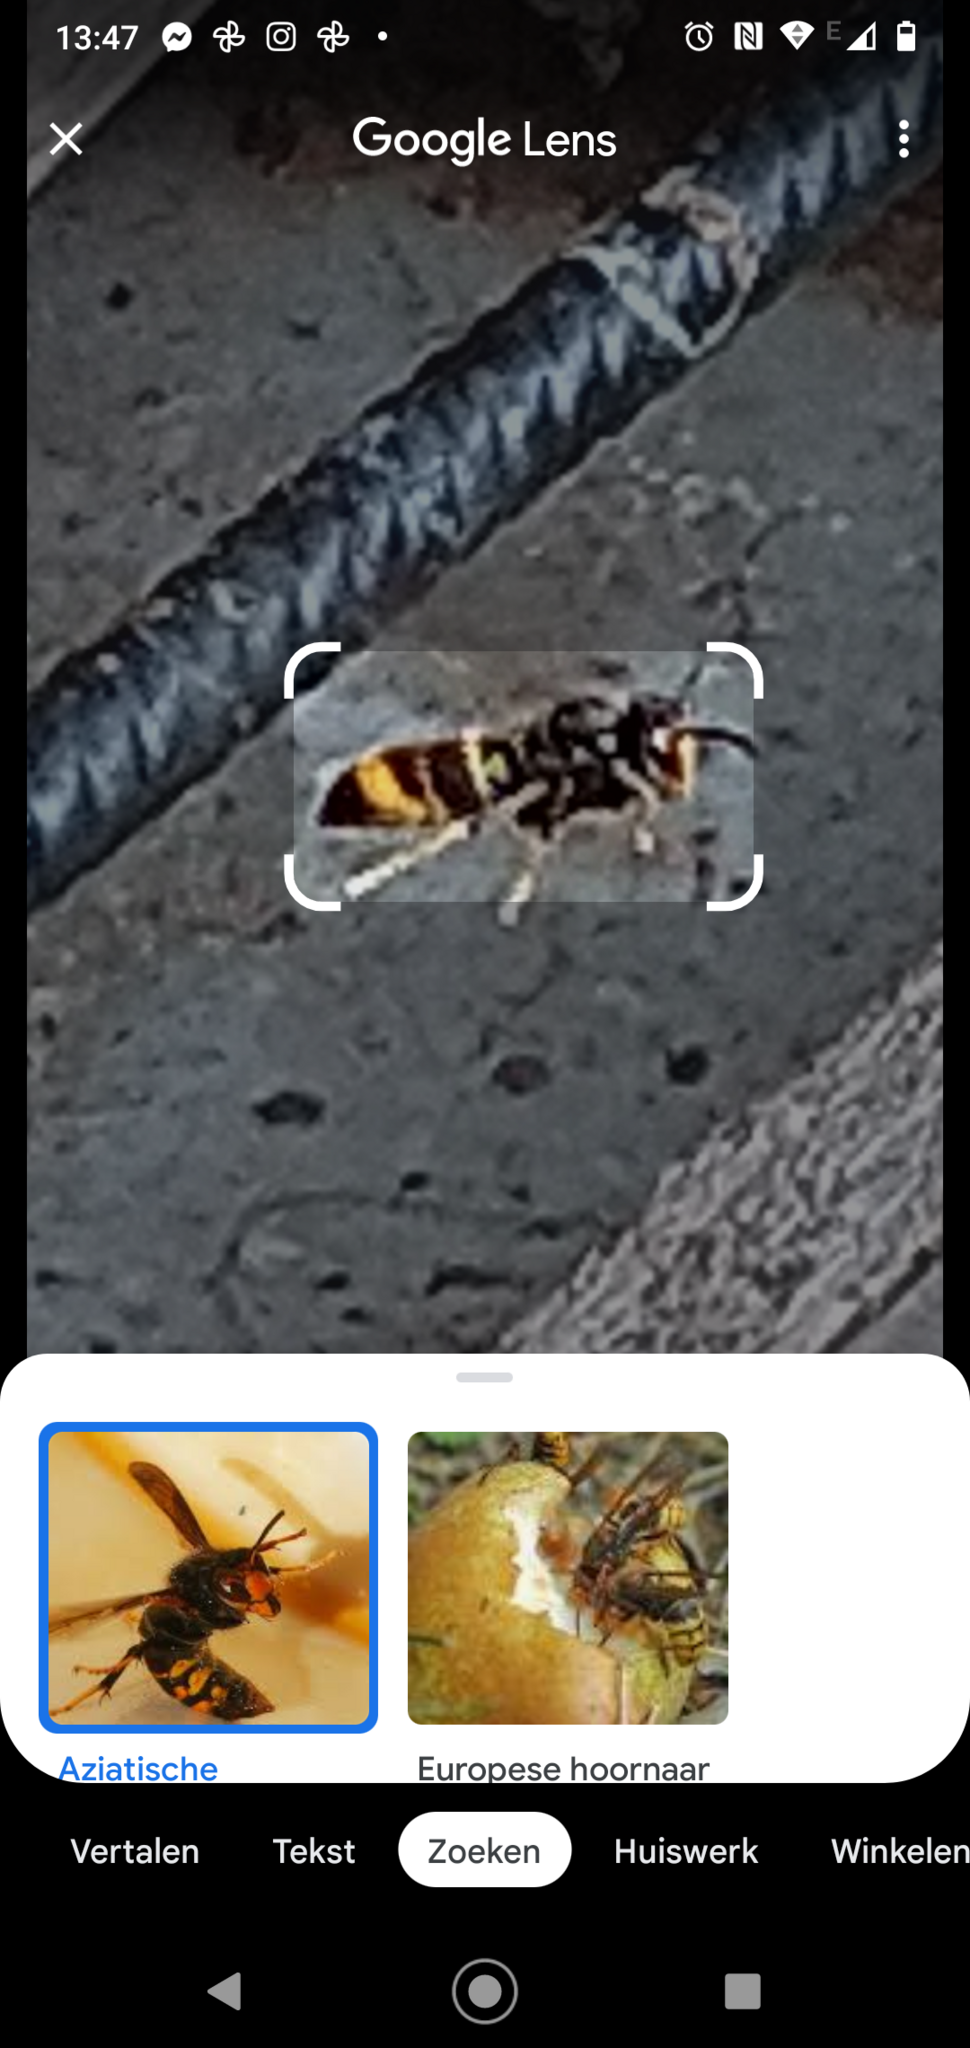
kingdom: Animalia
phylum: Arthropoda
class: Insecta
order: Hymenoptera
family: Vespidae
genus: Vespa
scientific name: Vespa velutina
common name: Asian hornet
